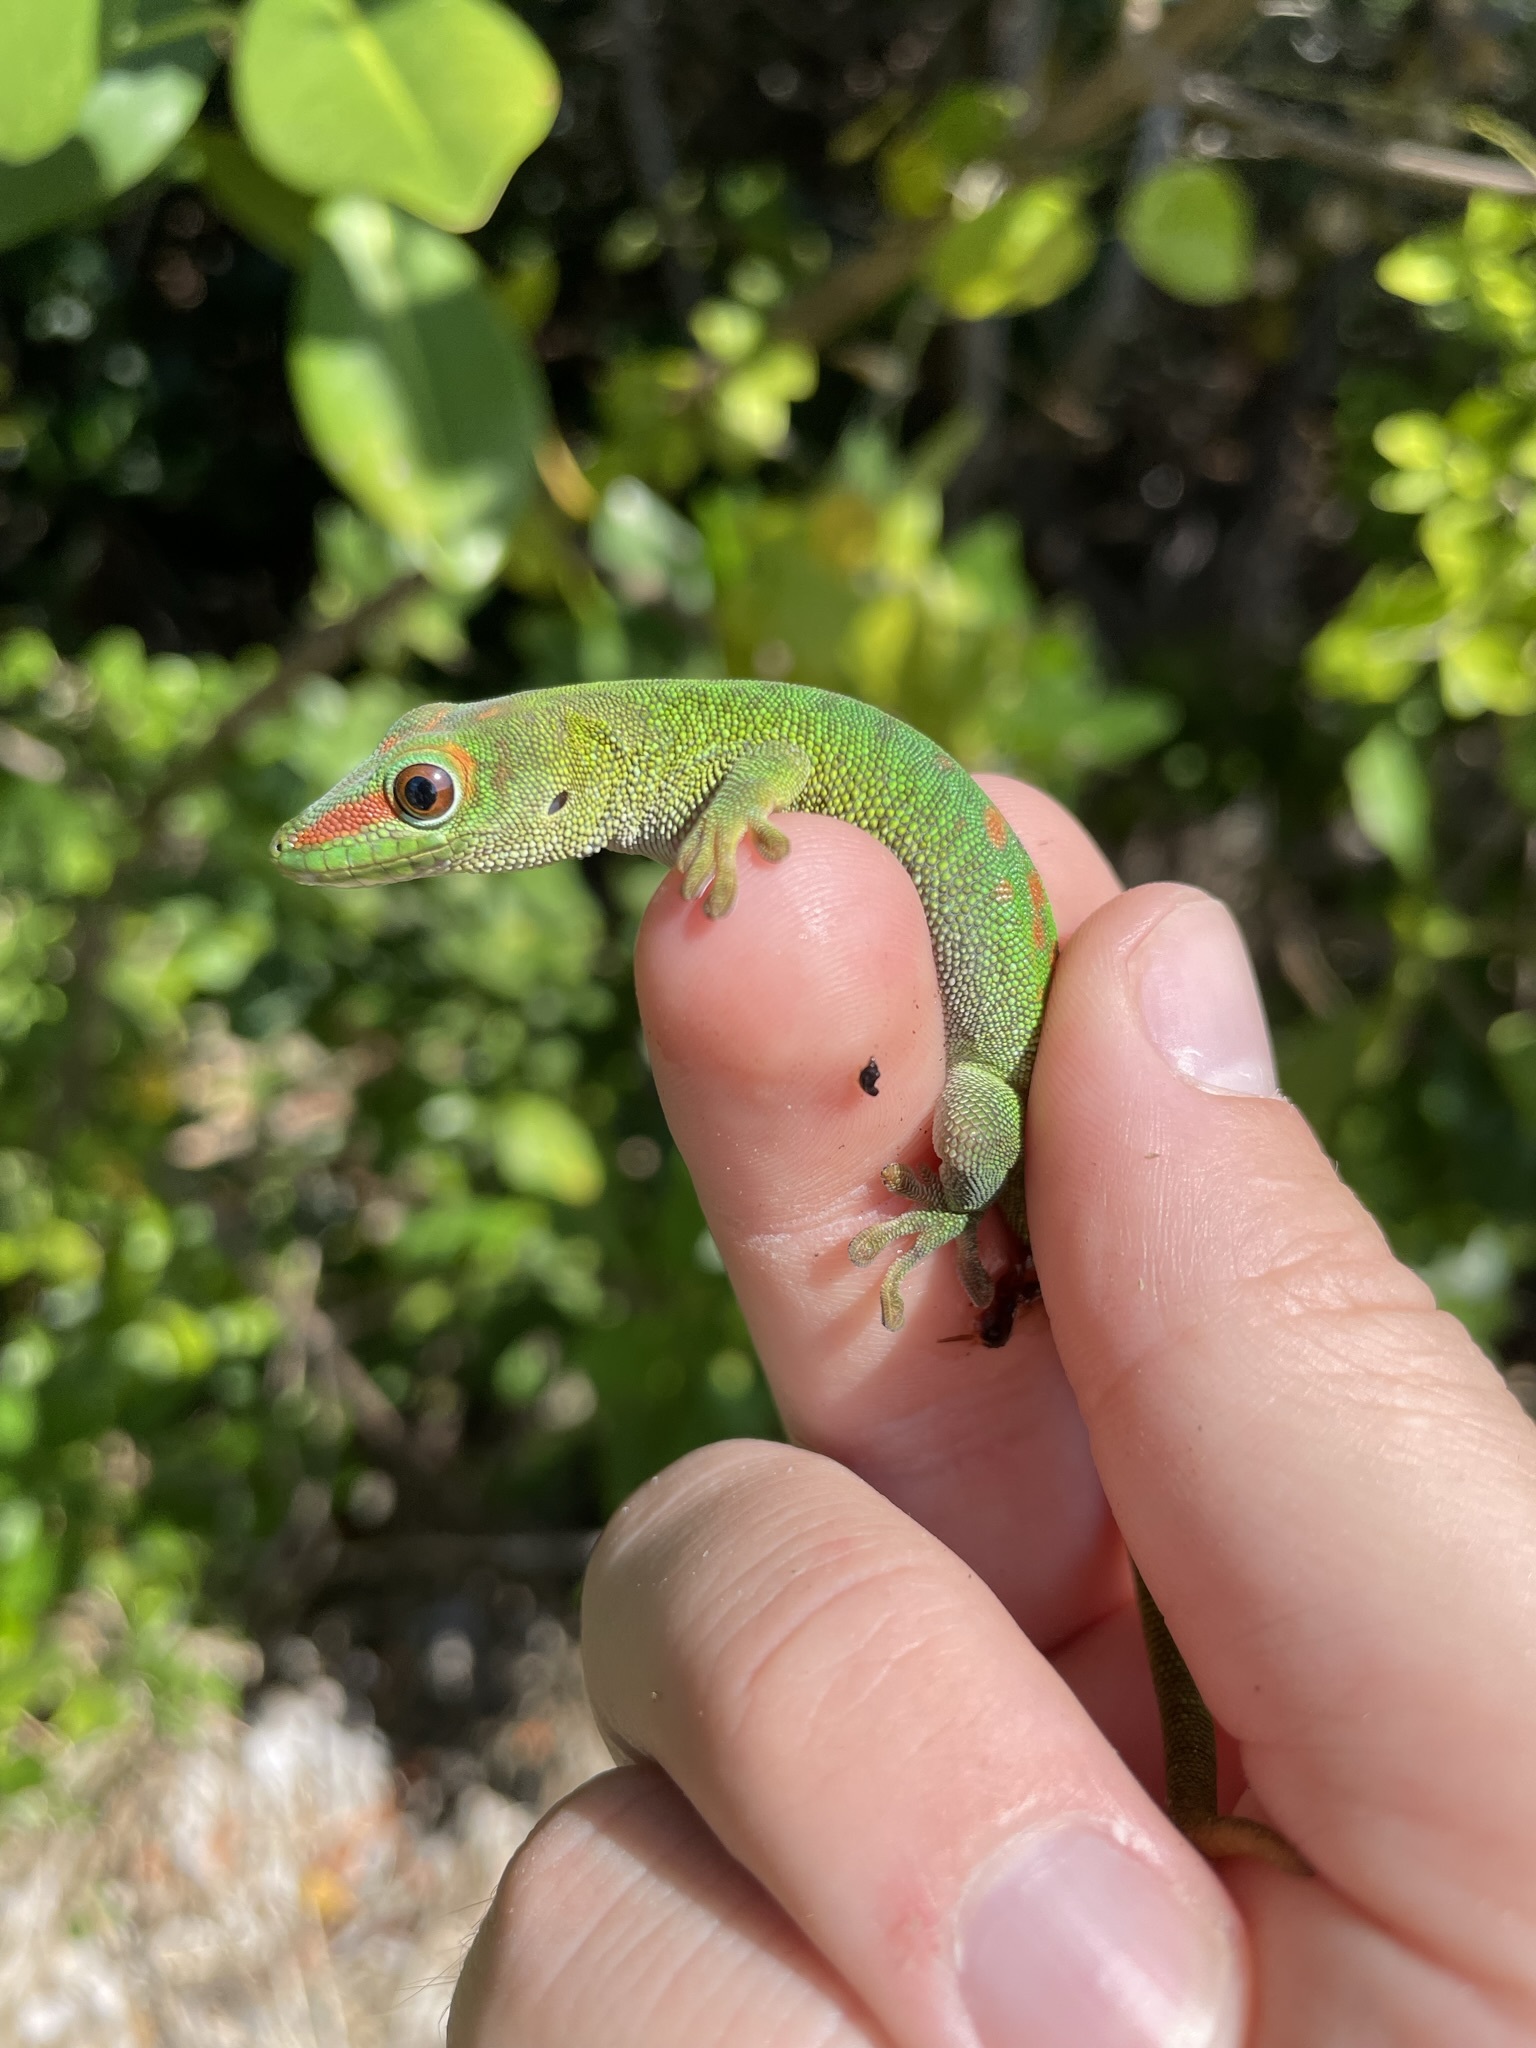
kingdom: Animalia
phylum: Chordata
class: Squamata
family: Gekkonidae
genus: Phelsuma
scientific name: Phelsuma grandis
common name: Madagascar giant day gecko
